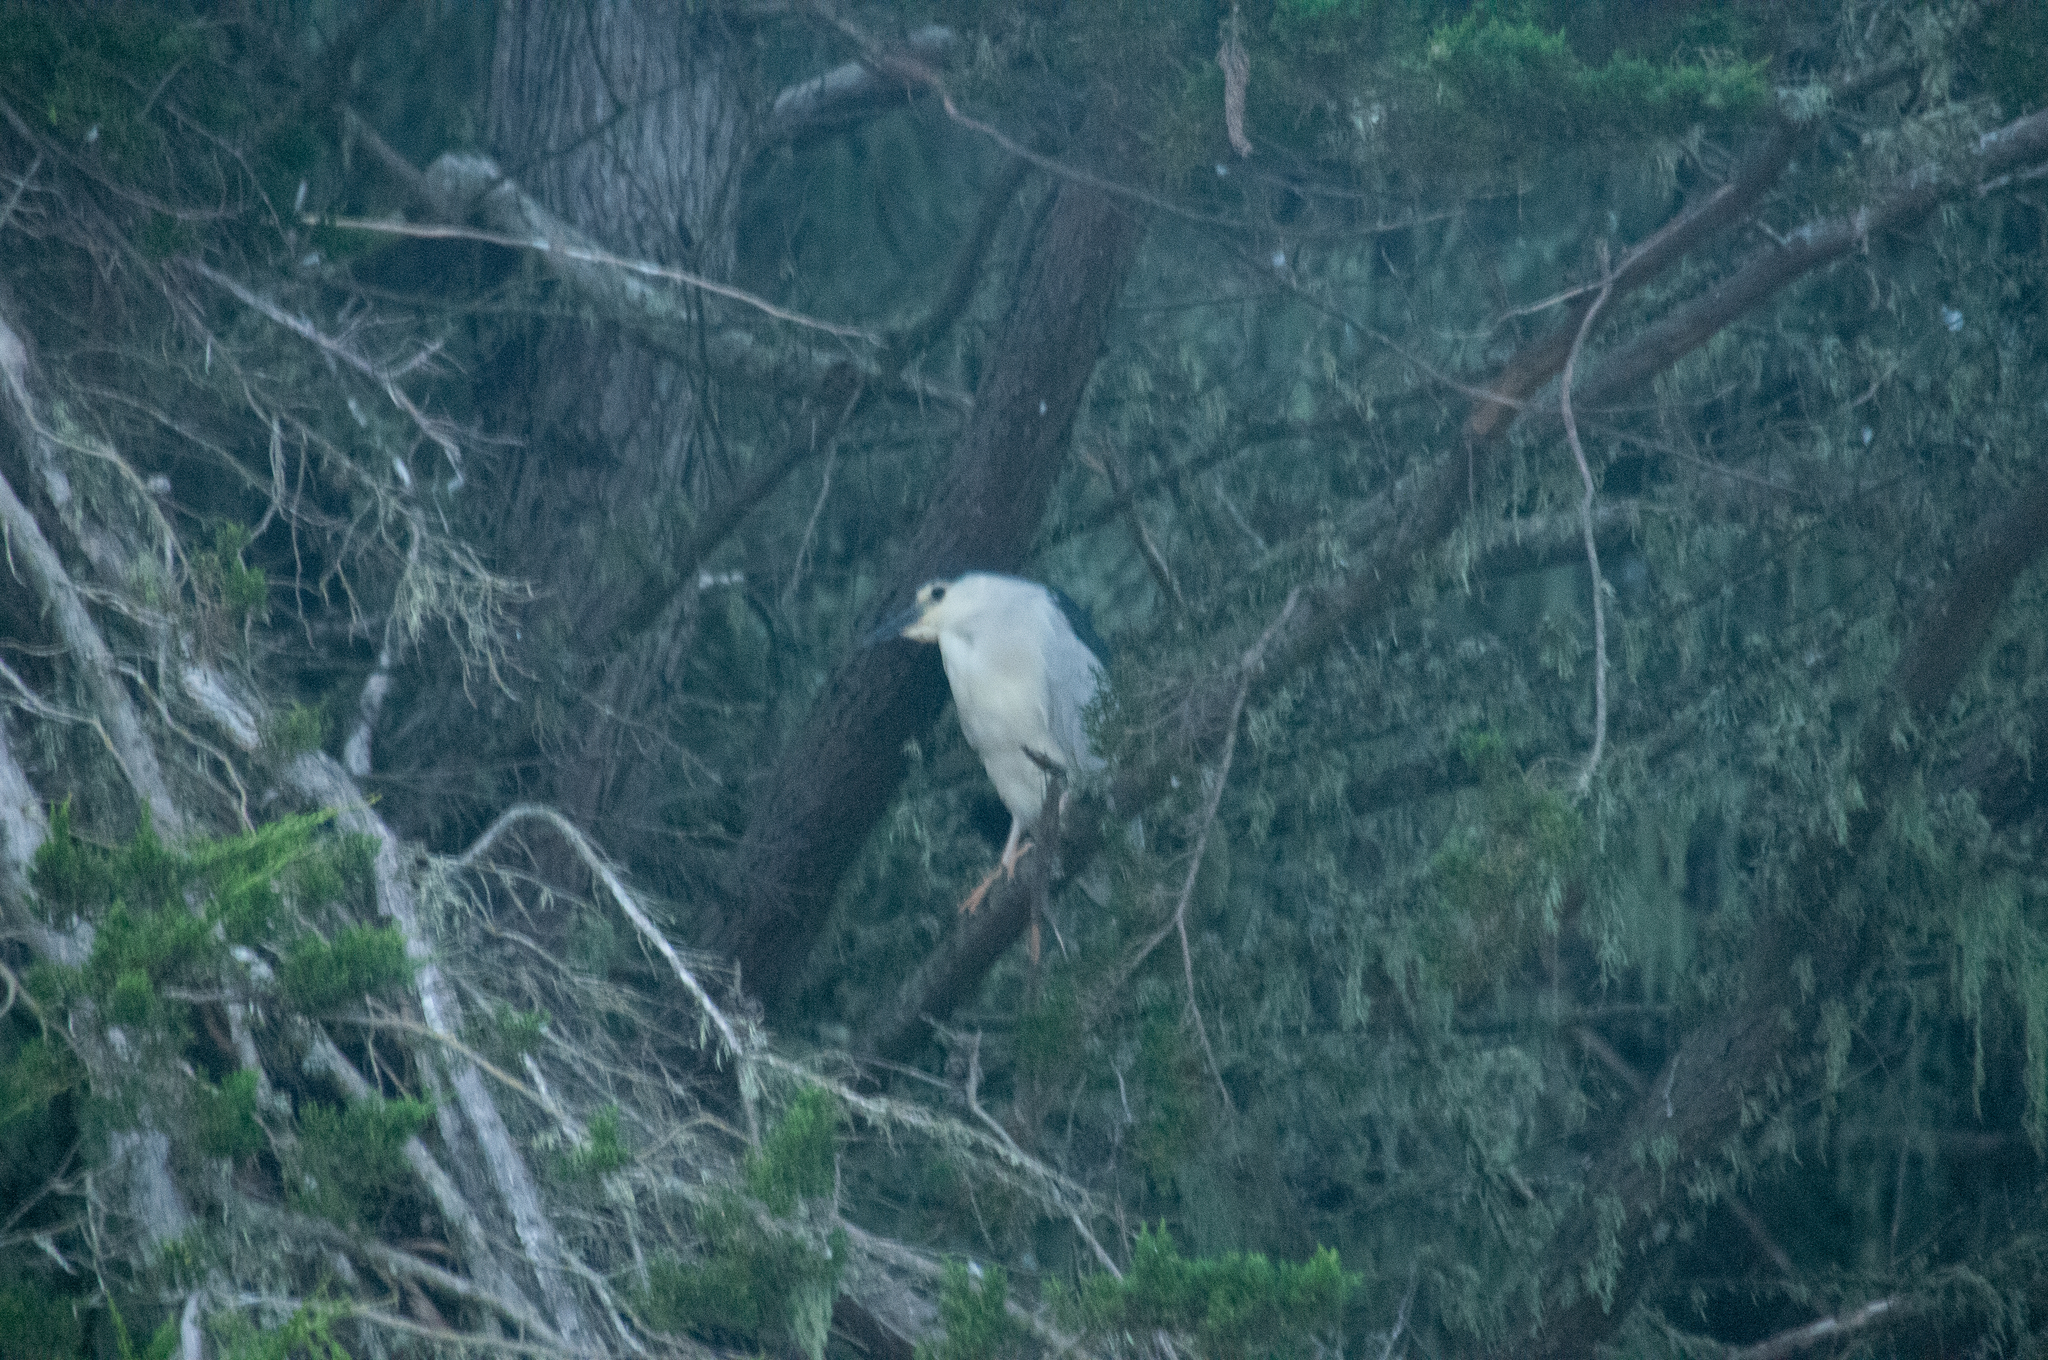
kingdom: Animalia
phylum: Chordata
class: Aves
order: Pelecaniformes
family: Ardeidae
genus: Nycticorax
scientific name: Nycticorax nycticorax
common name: Black-crowned night heron
